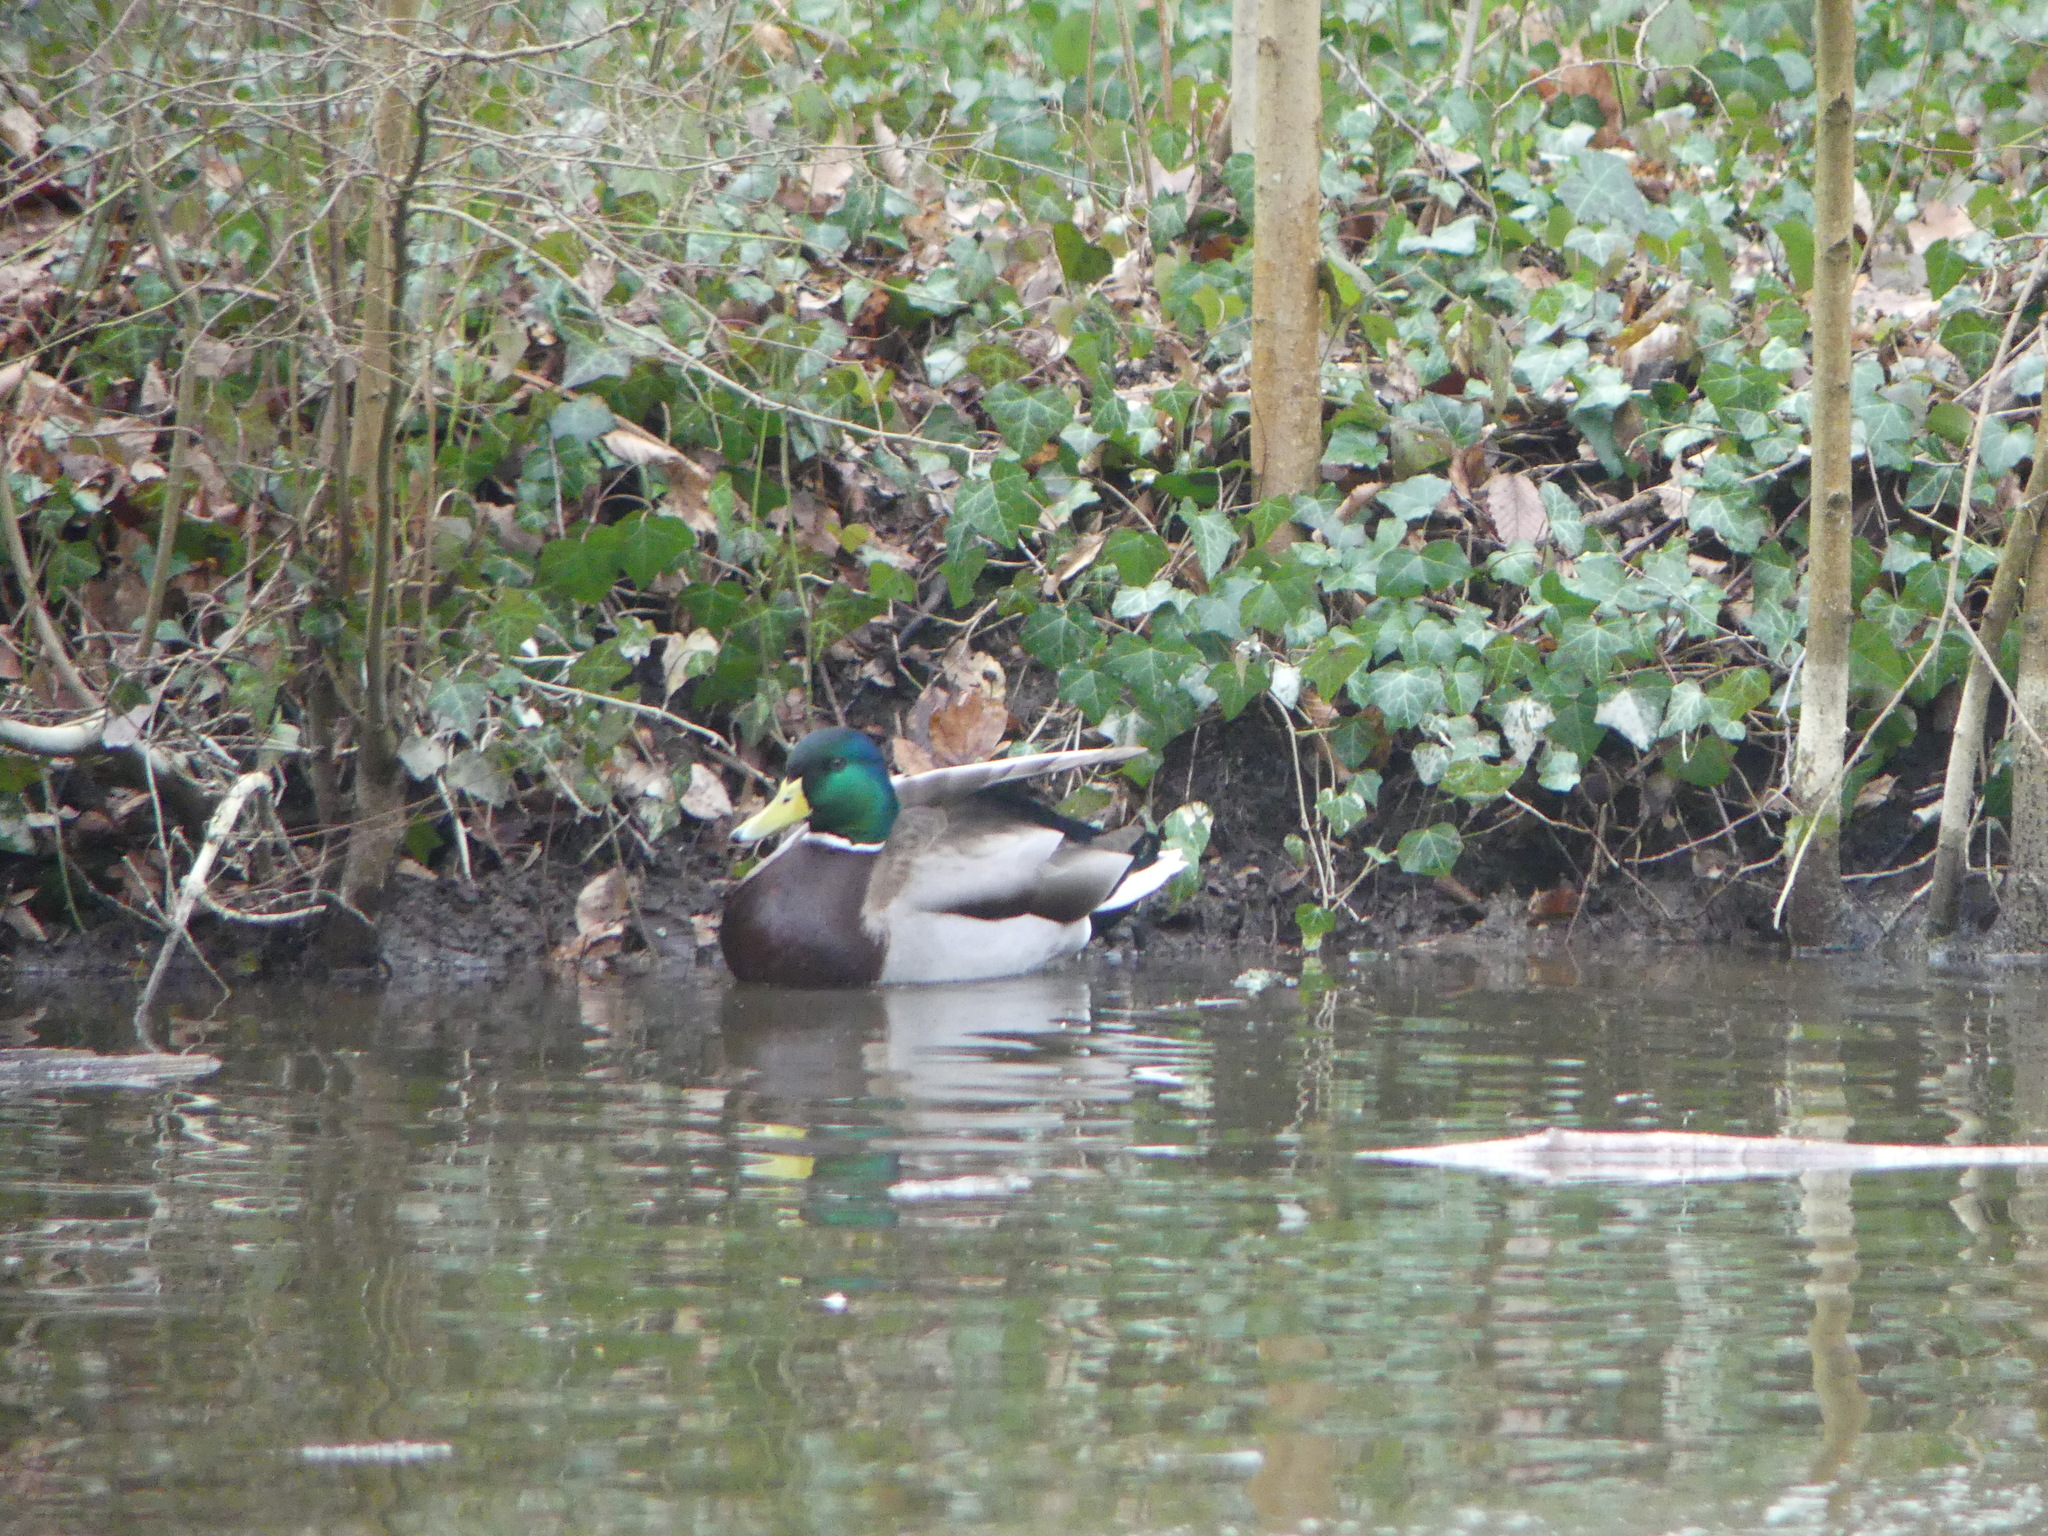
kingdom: Animalia
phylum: Chordata
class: Aves
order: Anseriformes
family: Anatidae
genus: Anas
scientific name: Anas platyrhynchos
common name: Mallard
